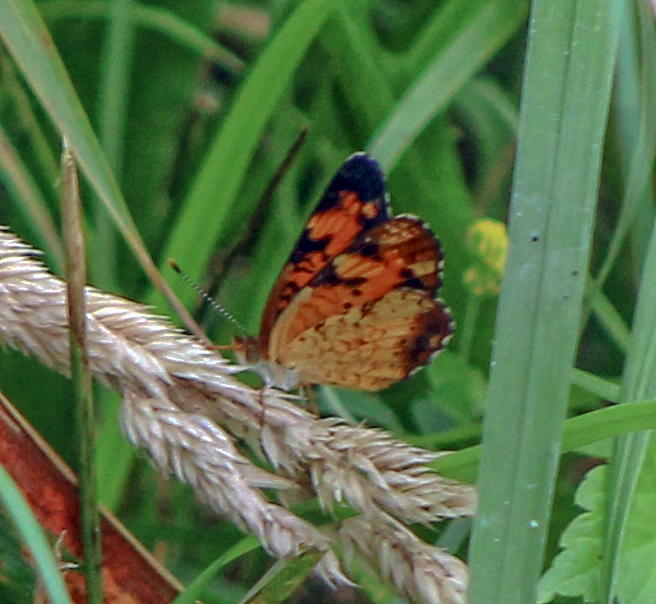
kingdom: Animalia
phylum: Arthropoda
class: Insecta
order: Lepidoptera
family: Nymphalidae
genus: Phyciodes
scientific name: Phyciodes tharos
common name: Pearl crescent
